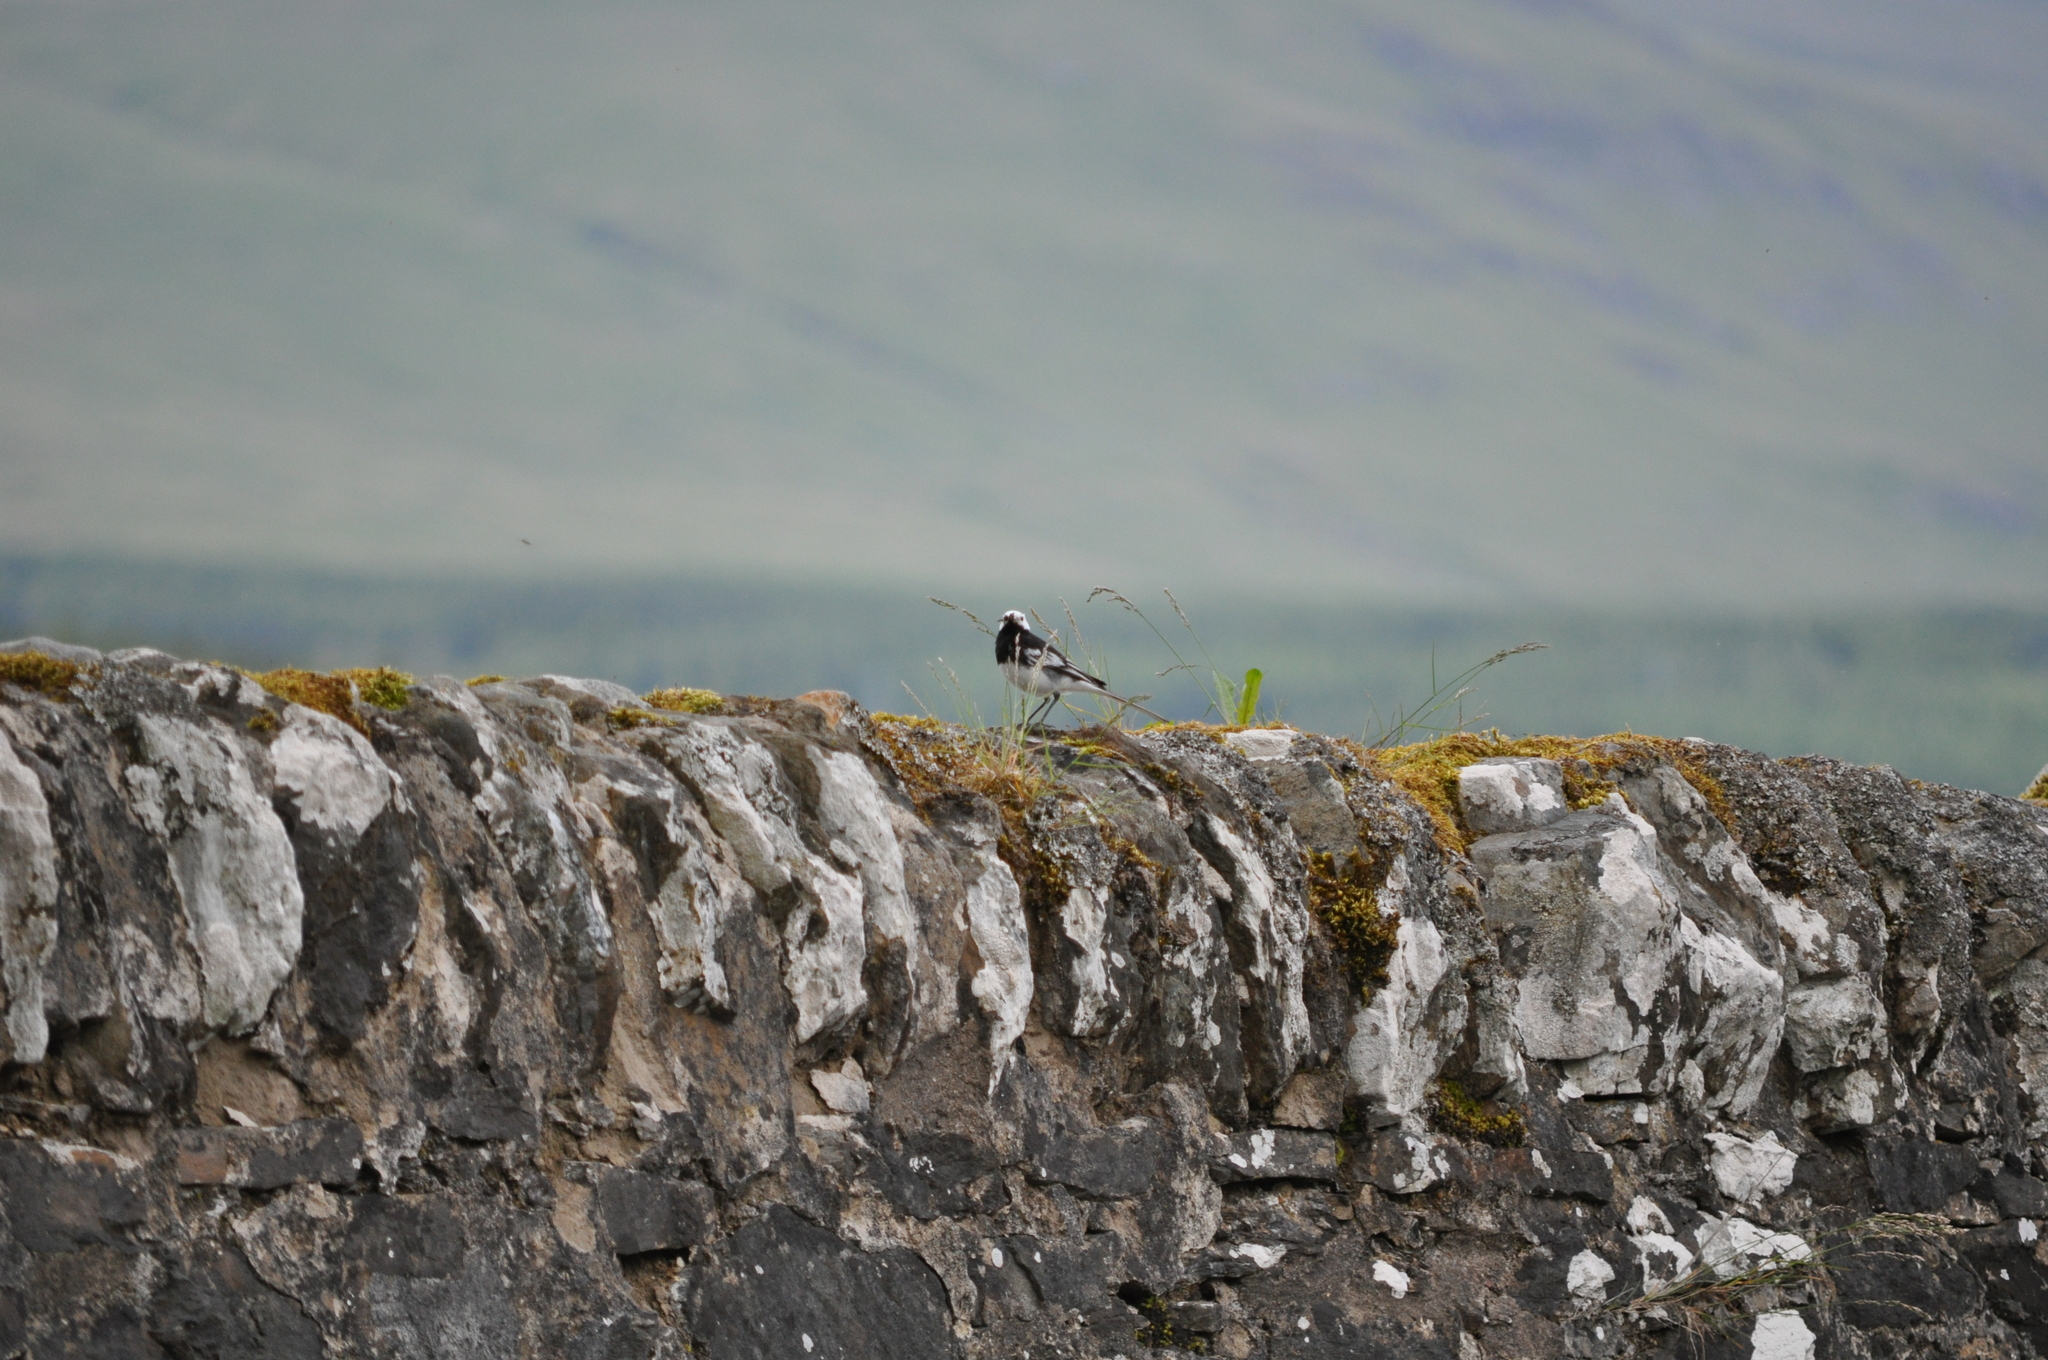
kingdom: Animalia
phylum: Chordata
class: Aves
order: Passeriformes
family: Motacillidae
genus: Motacilla
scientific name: Motacilla alba
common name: White wagtail
